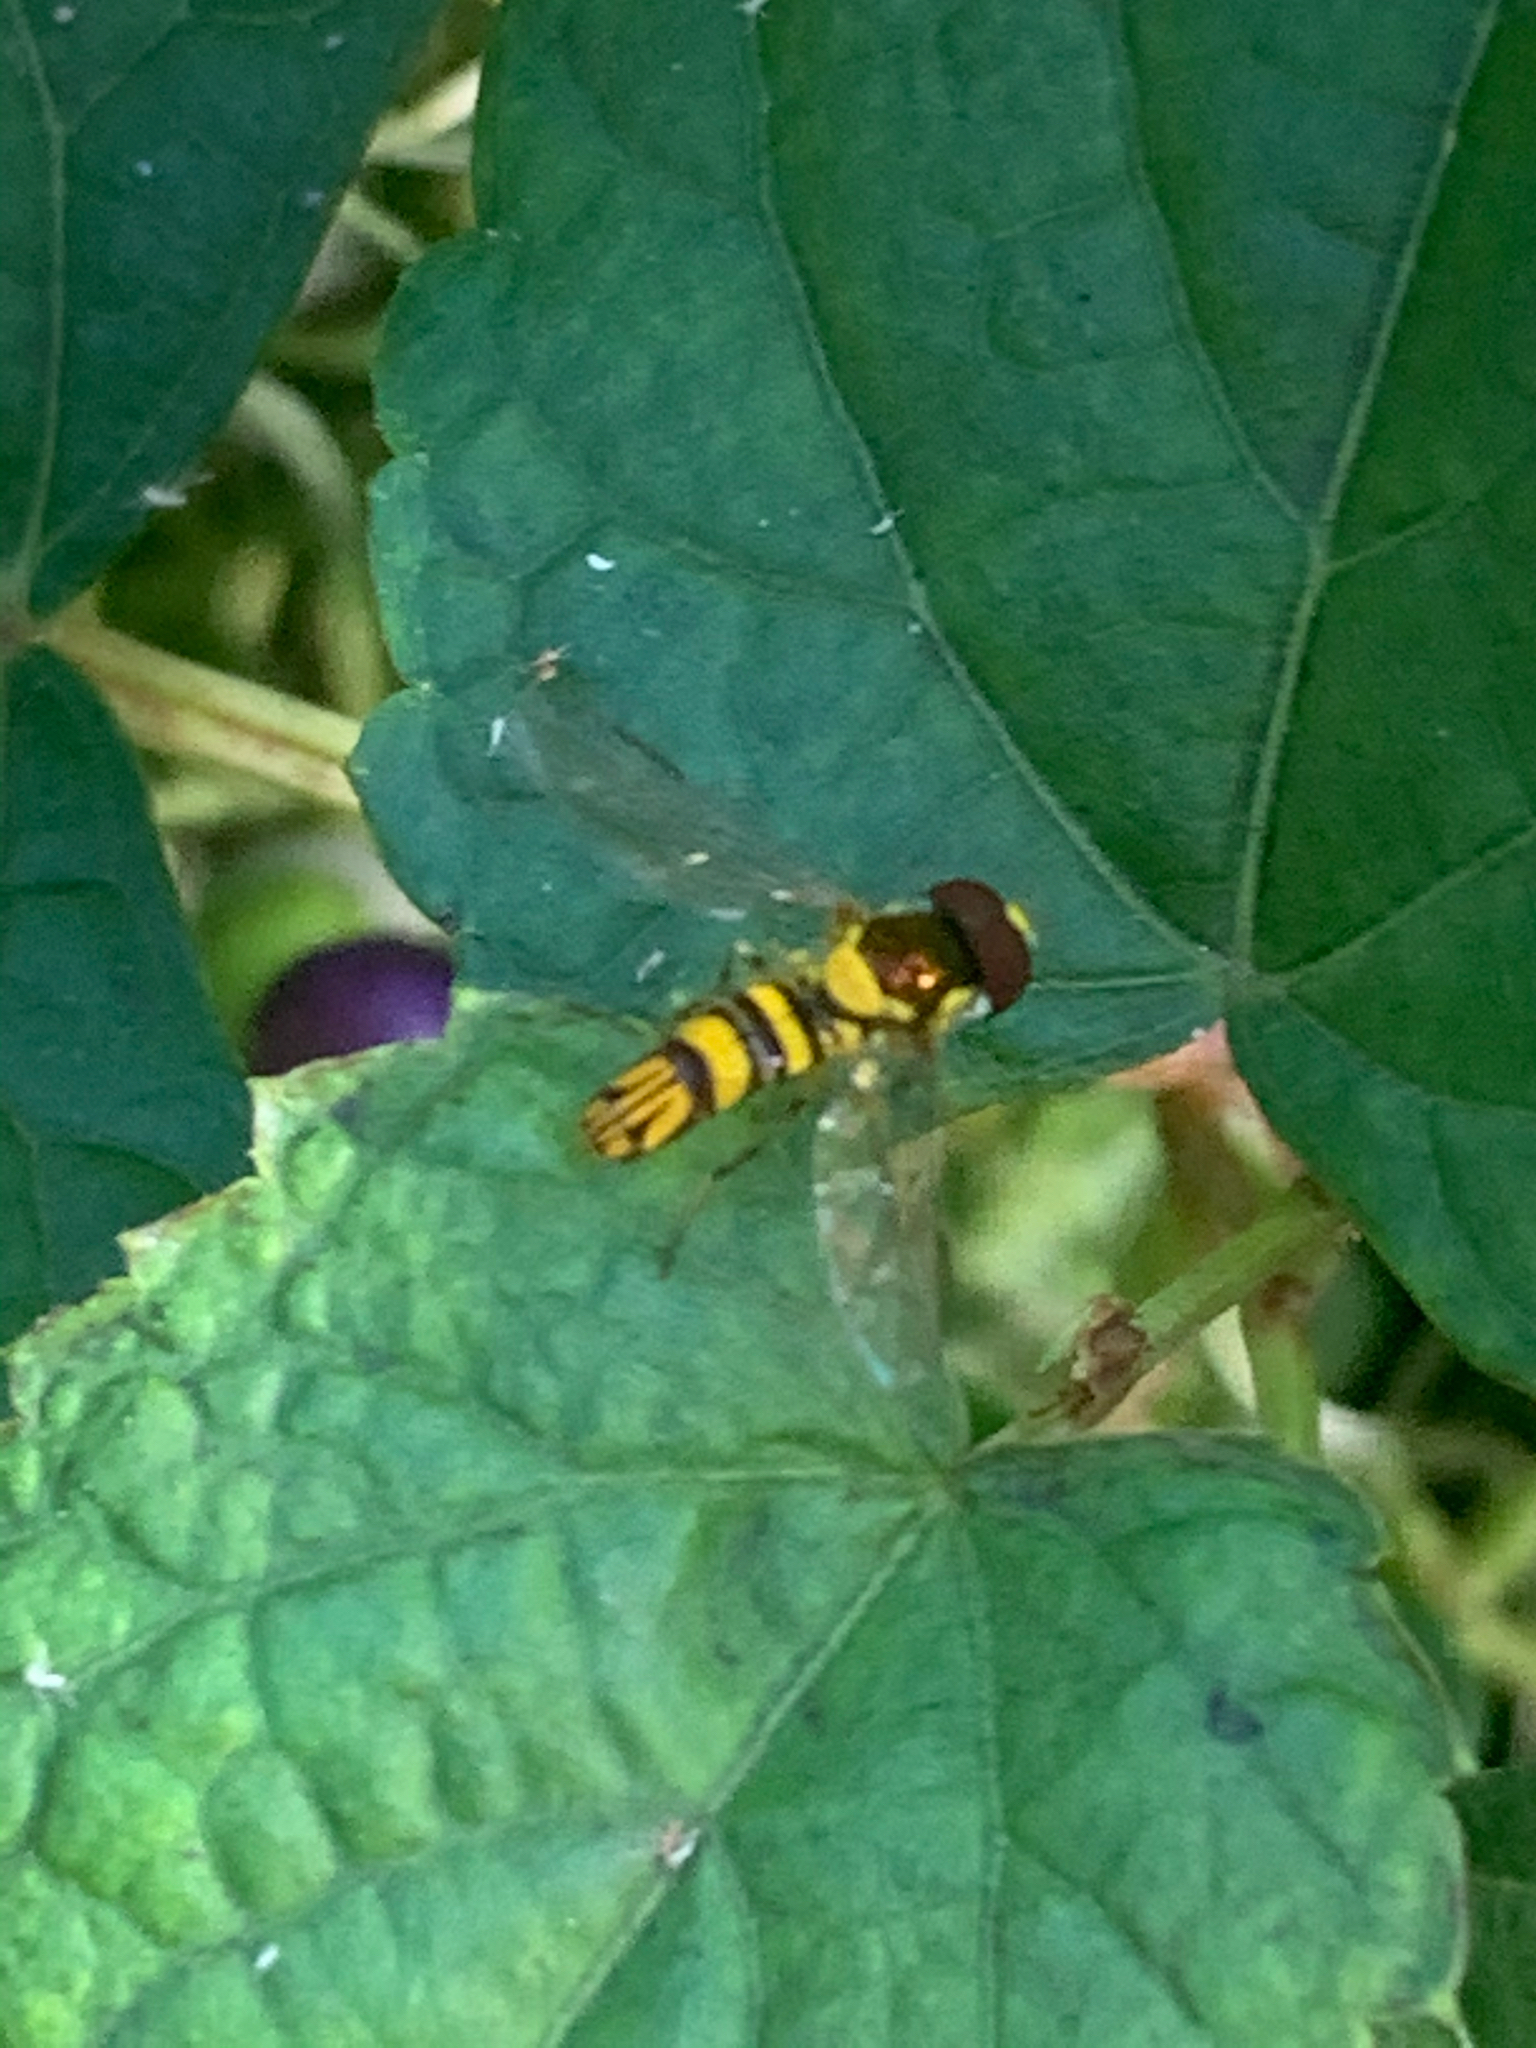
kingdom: Animalia
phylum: Arthropoda
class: Insecta
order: Diptera
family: Syrphidae
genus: Allograpta
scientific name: Allograpta obliqua
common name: Common oblique syrphid
